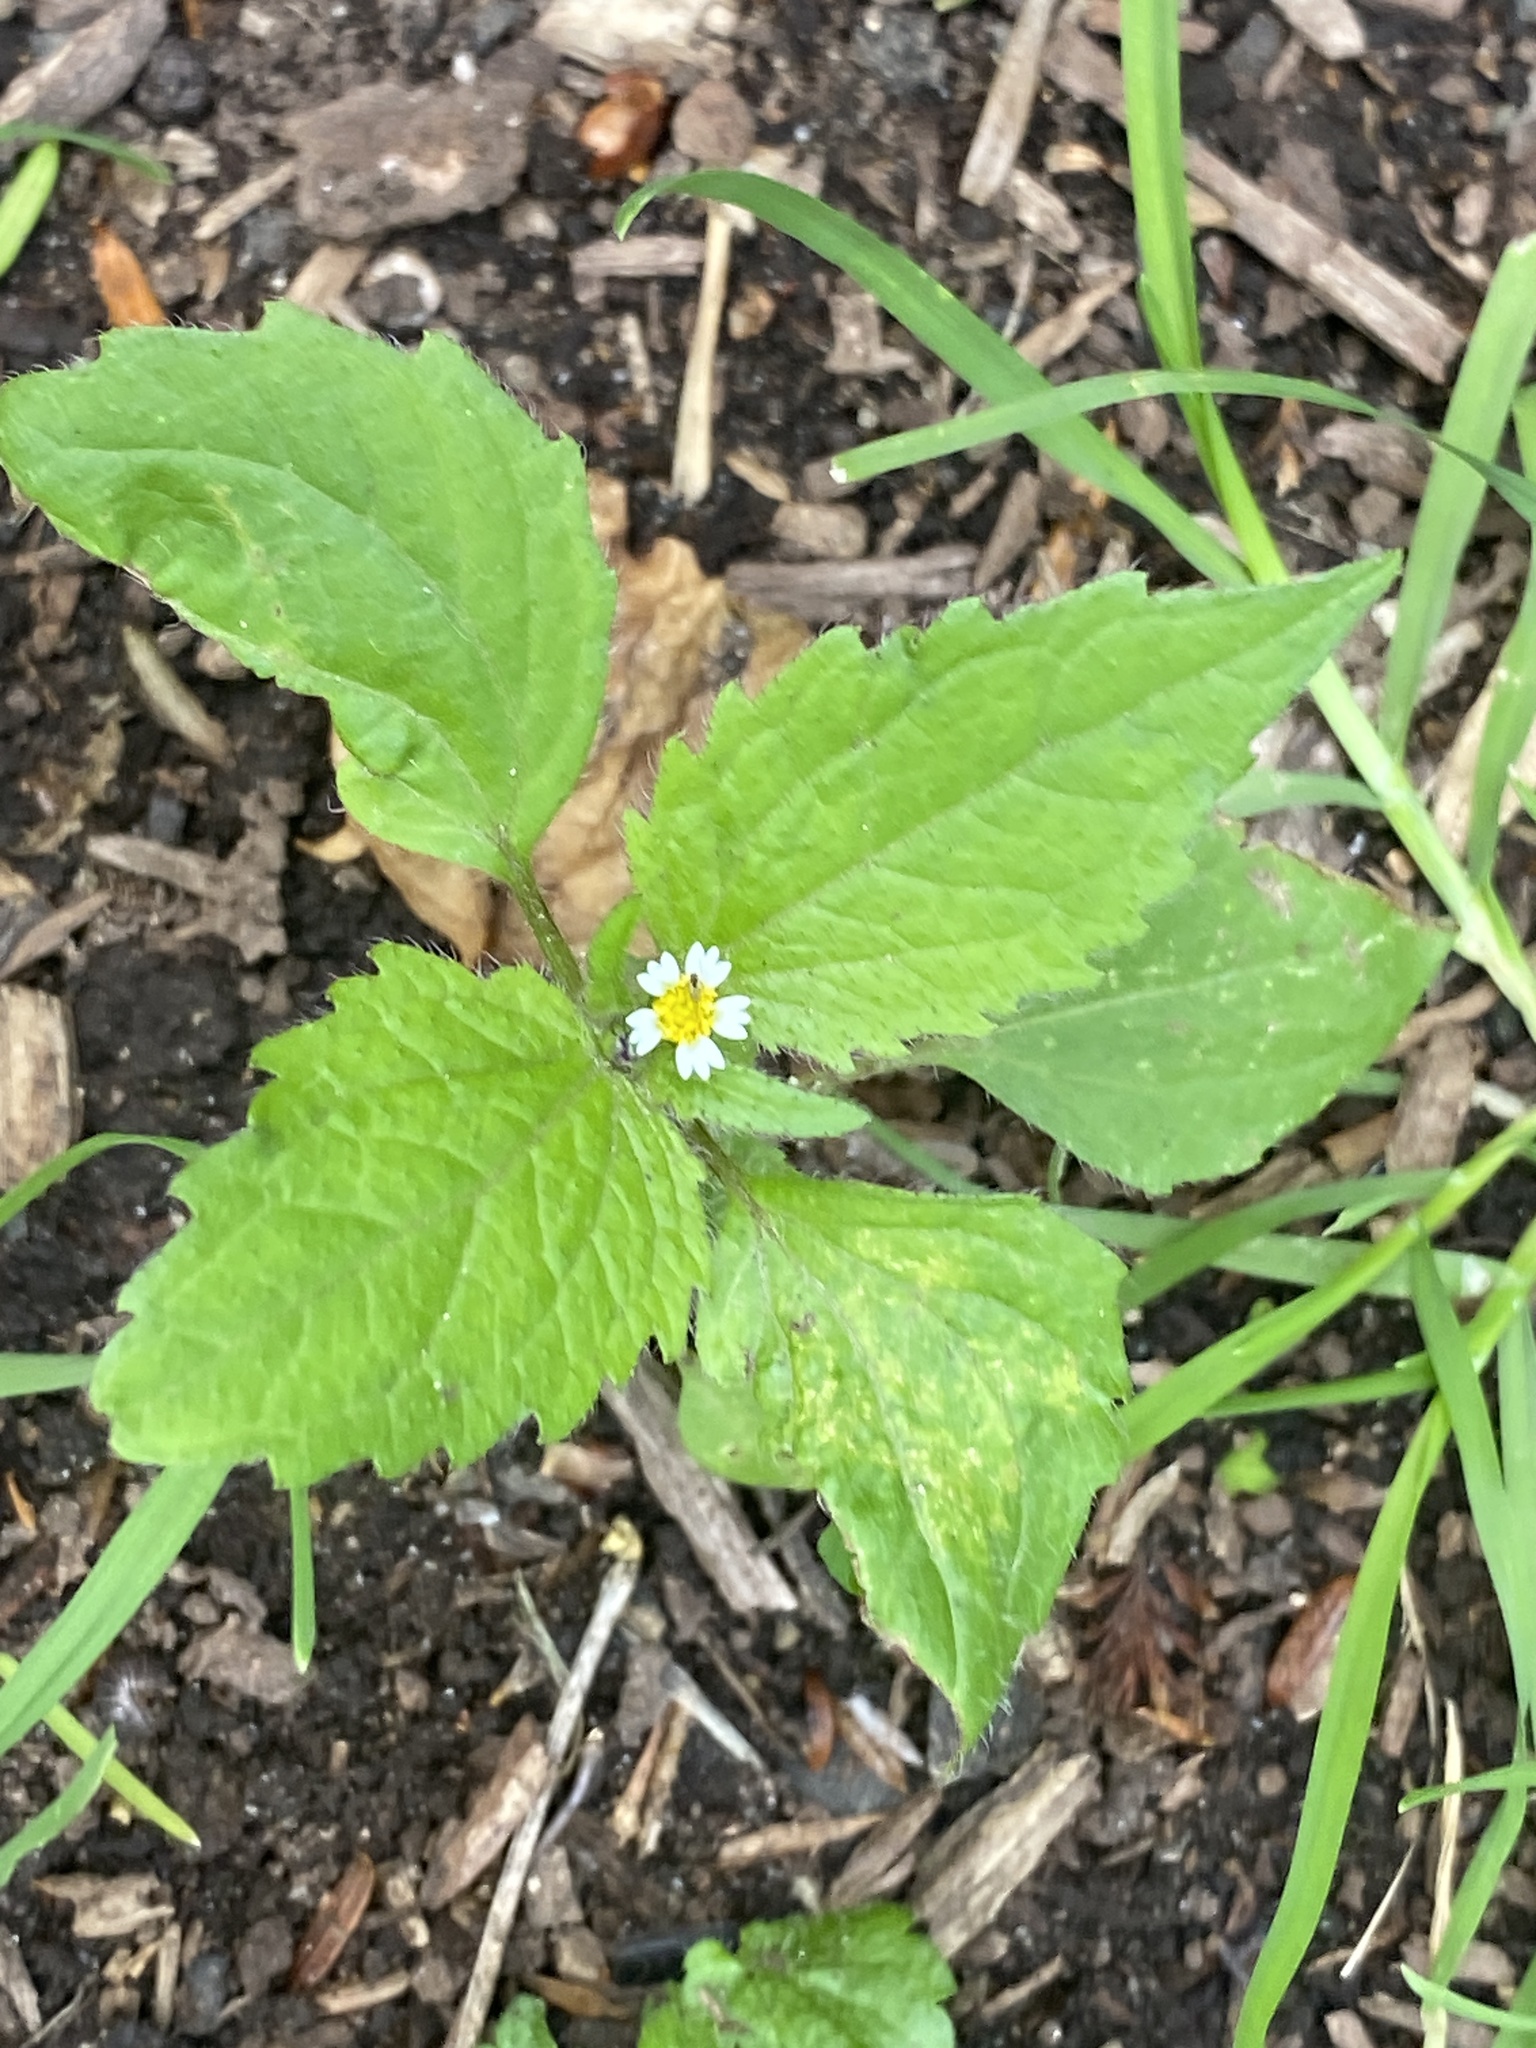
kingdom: Plantae
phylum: Tracheophyta
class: Magnoliopsida
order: Asterales
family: Asteraceae
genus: Galinsoga
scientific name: Galinsoga quadriradiata
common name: Shaggy soldier
